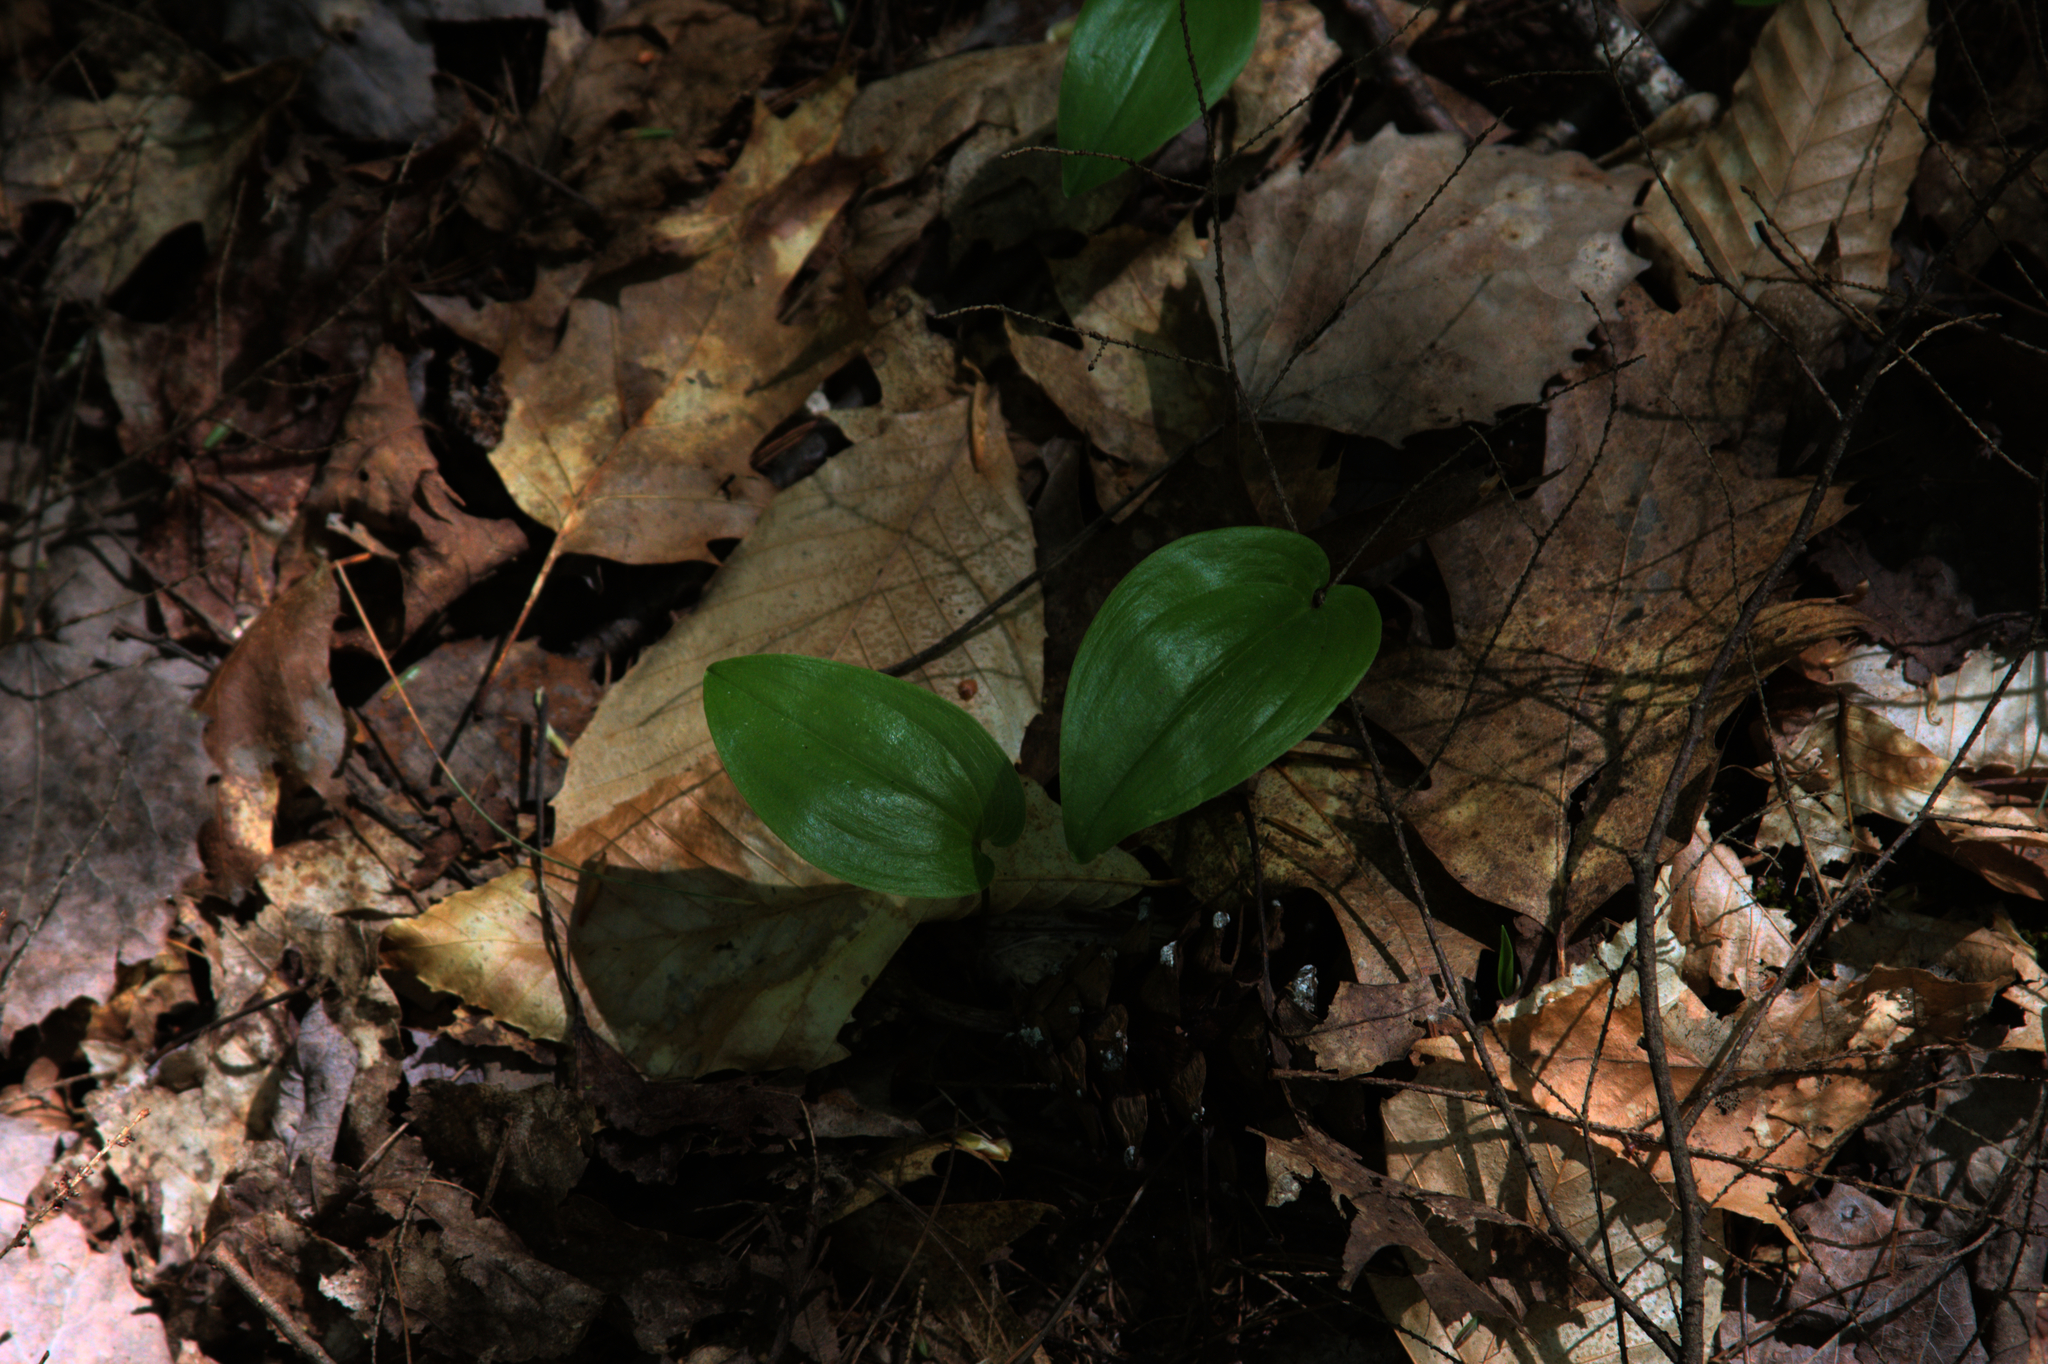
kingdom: Plantae
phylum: Tracheophyta
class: Liliopsida
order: Asparagales
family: Asparagaceae
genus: Maianthemum
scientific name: Maianthemum canadense
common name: False lily-of-the-valley
